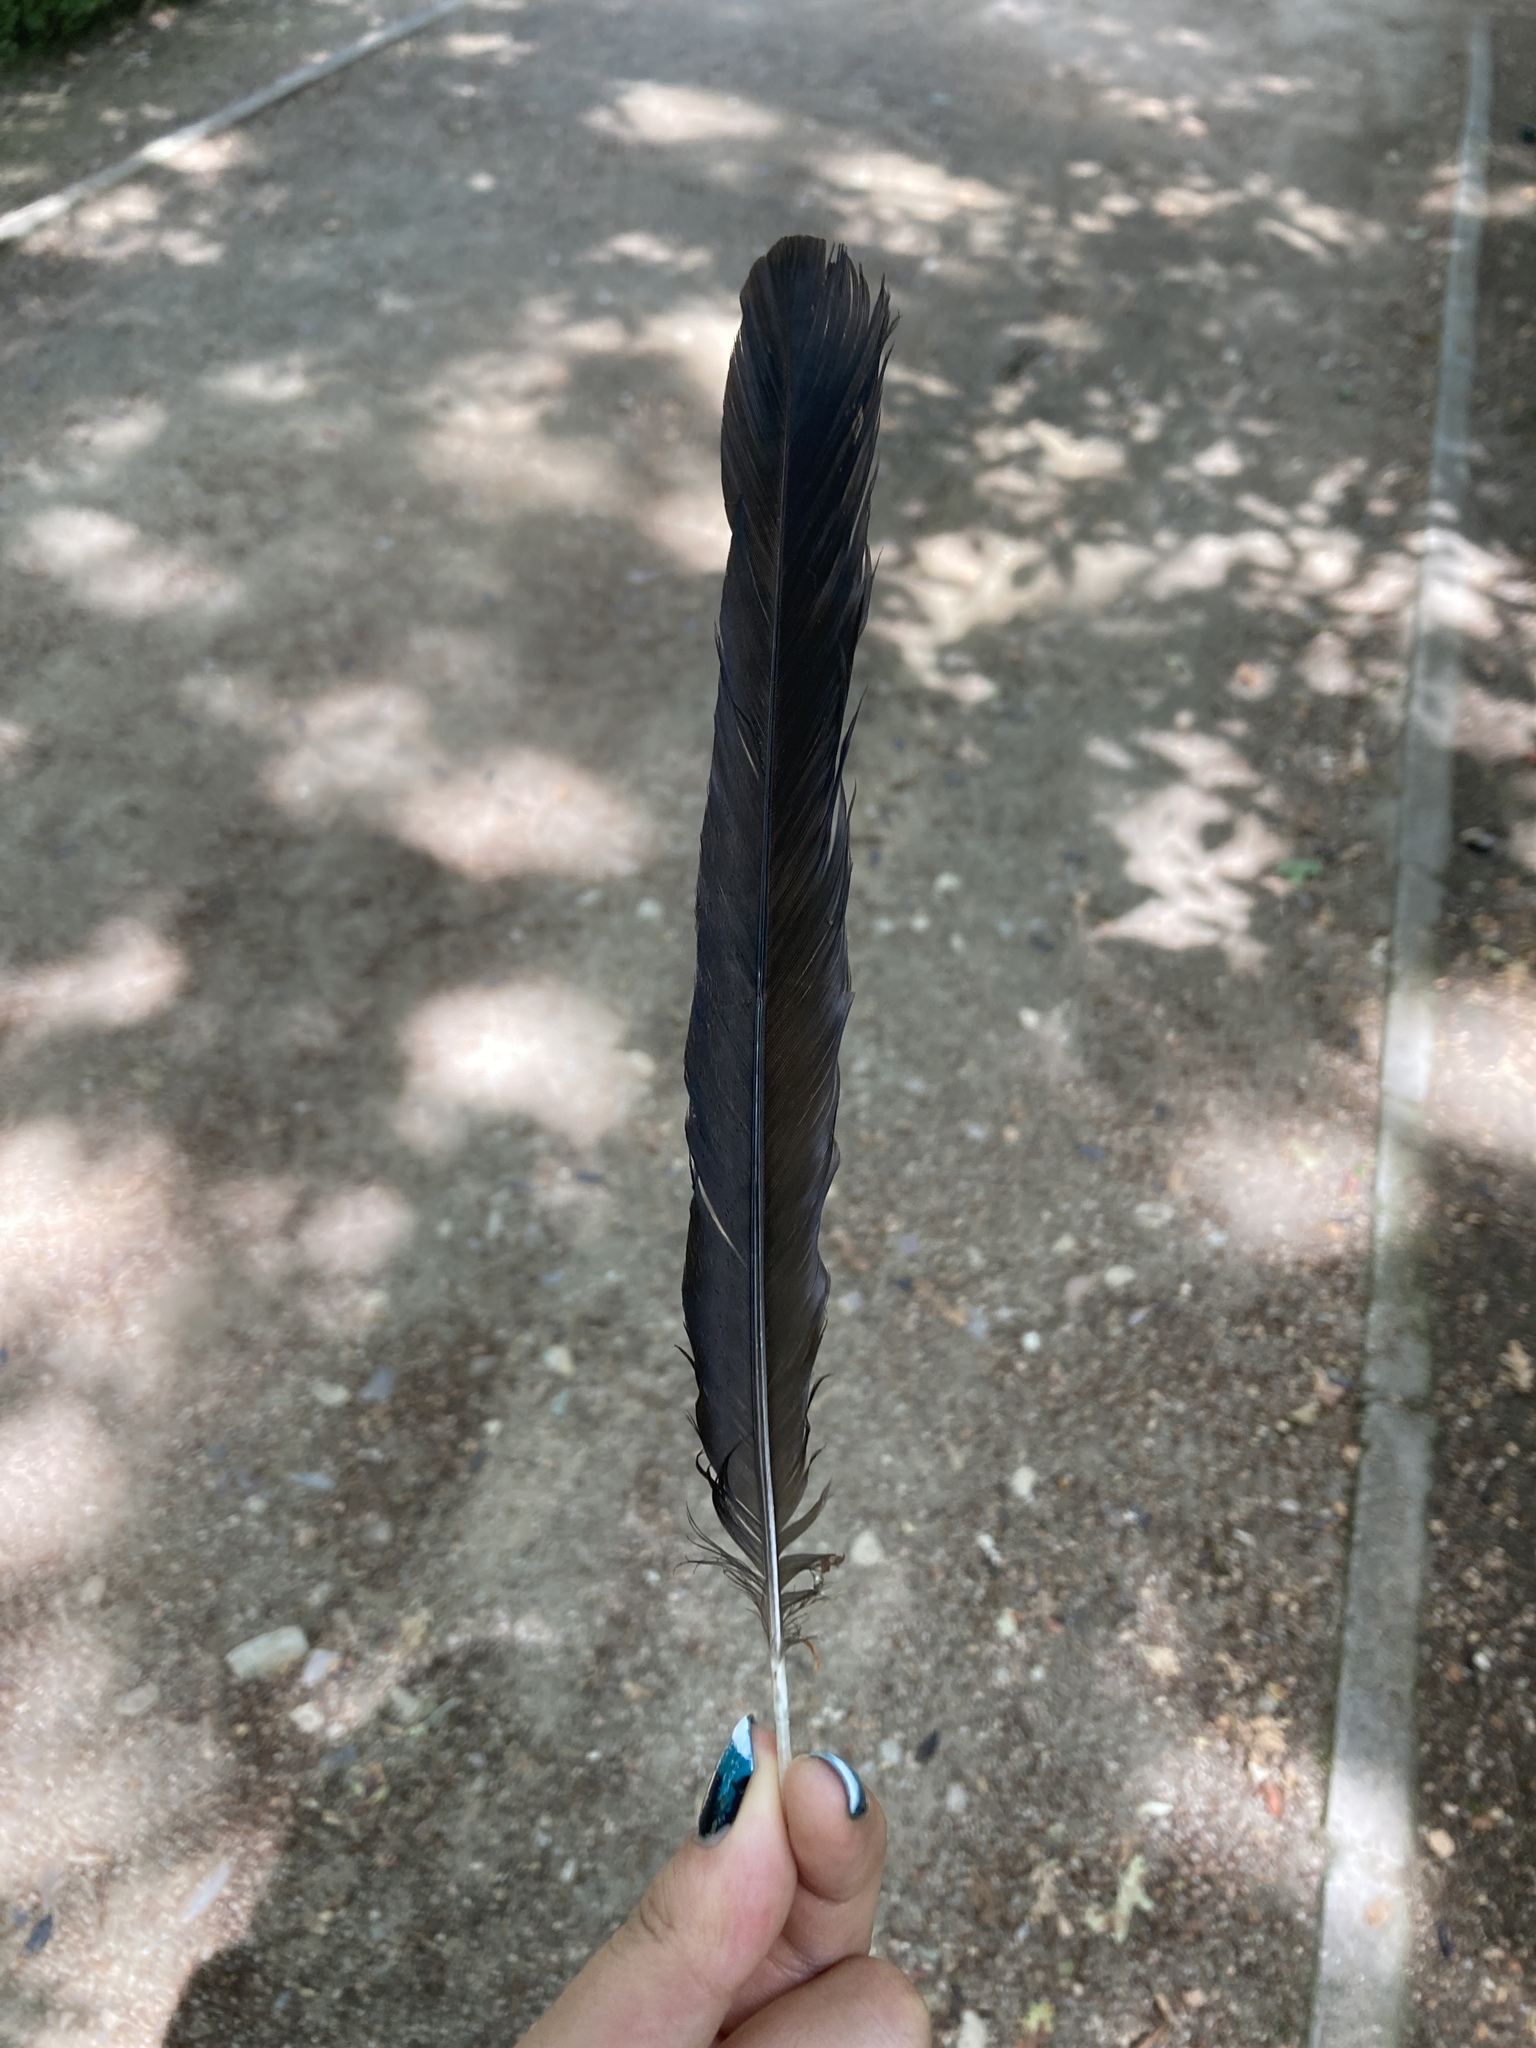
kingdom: Animalia
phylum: Chordata
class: Aves
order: Passeriformes
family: Corvidae
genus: Pica
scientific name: Pica pica
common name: Eurasian magpie
